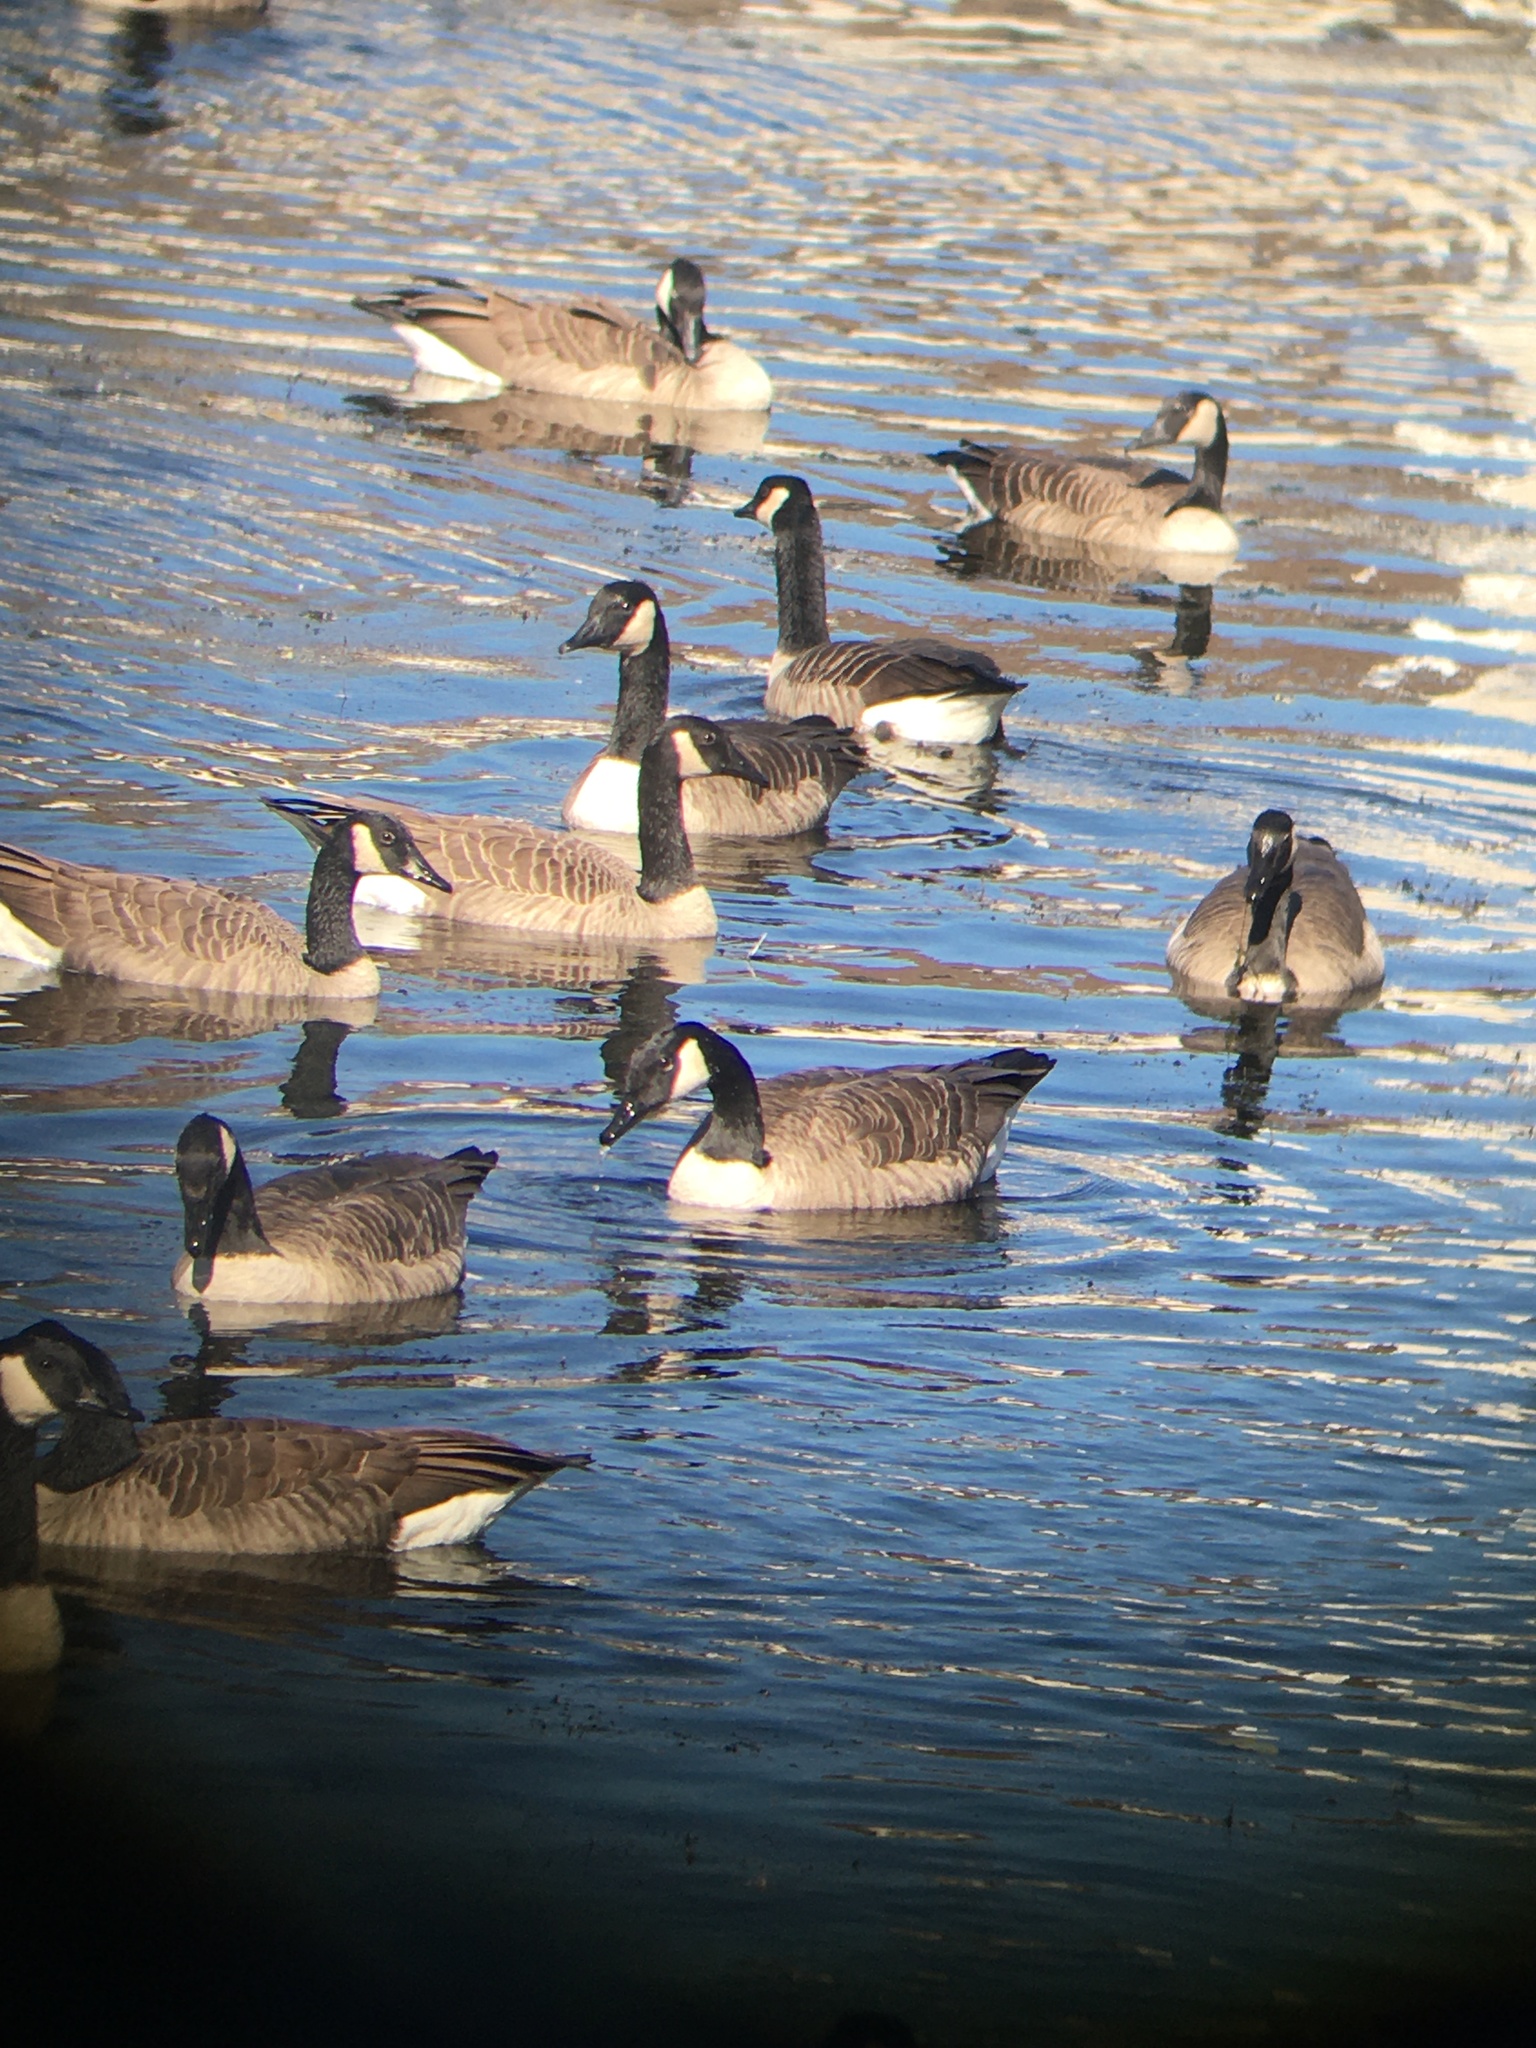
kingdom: Animalia
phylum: Chordata
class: Aves
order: Anseriformes
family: Anatidae
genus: Branta
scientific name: Branta canadensis
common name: Canada goose
